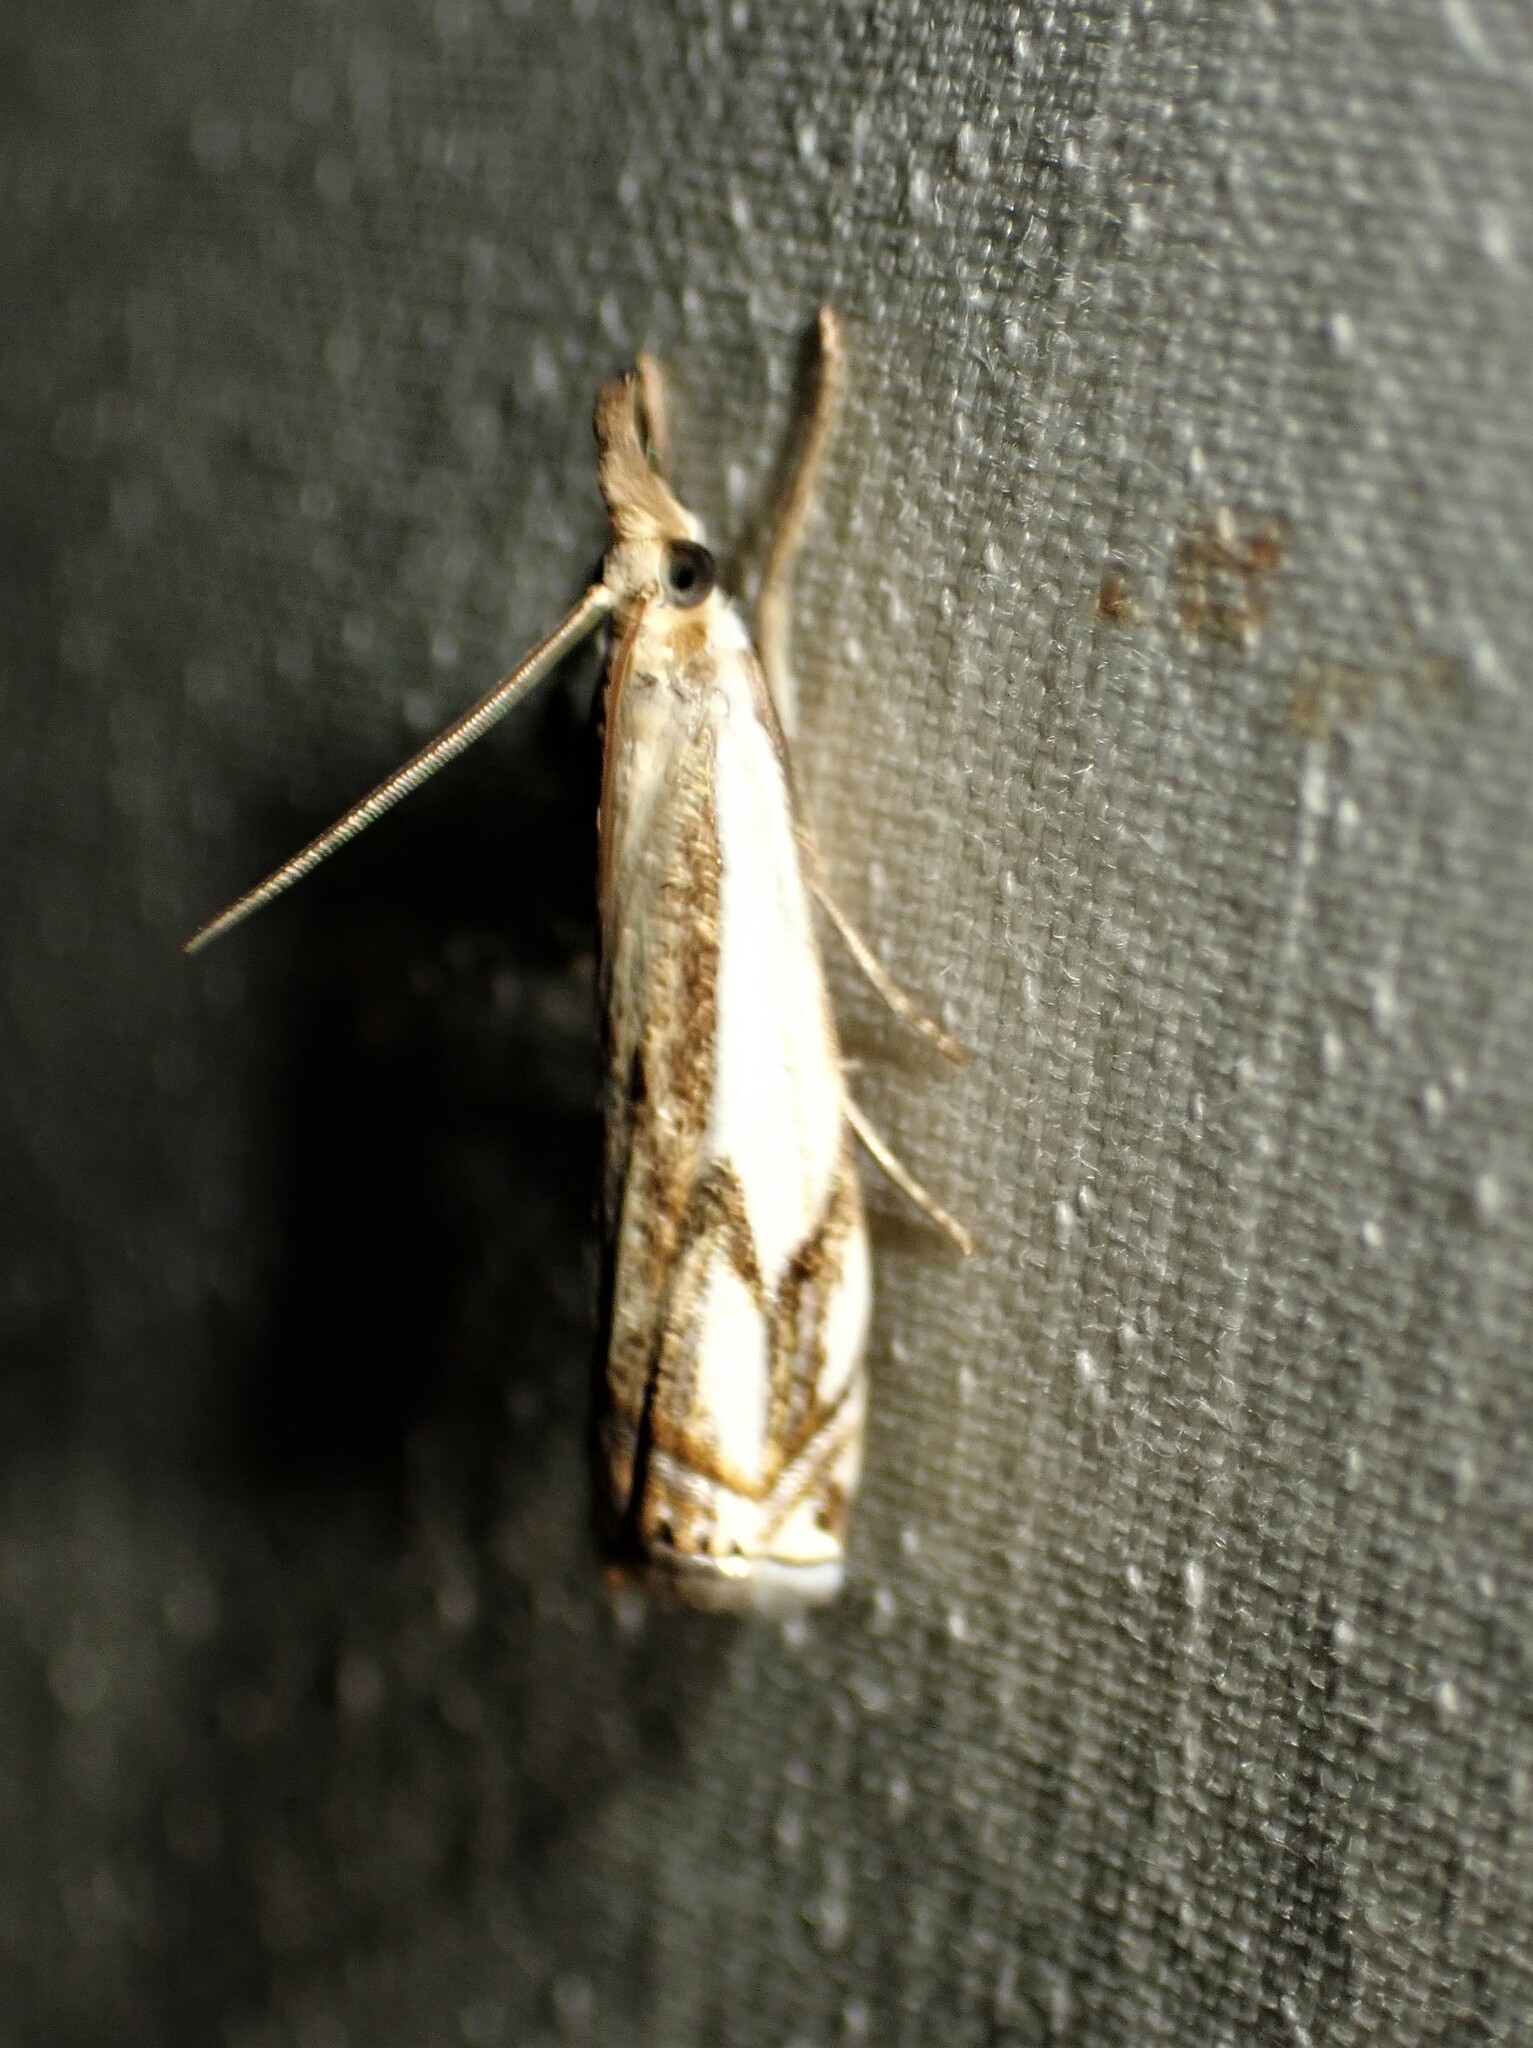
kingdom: Animalia
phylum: Arthropoda
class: Insecta
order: Lepidoptera
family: Crambidae
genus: Crambus
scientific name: Crambus agitatellus
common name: Double-banded grass-veneer
